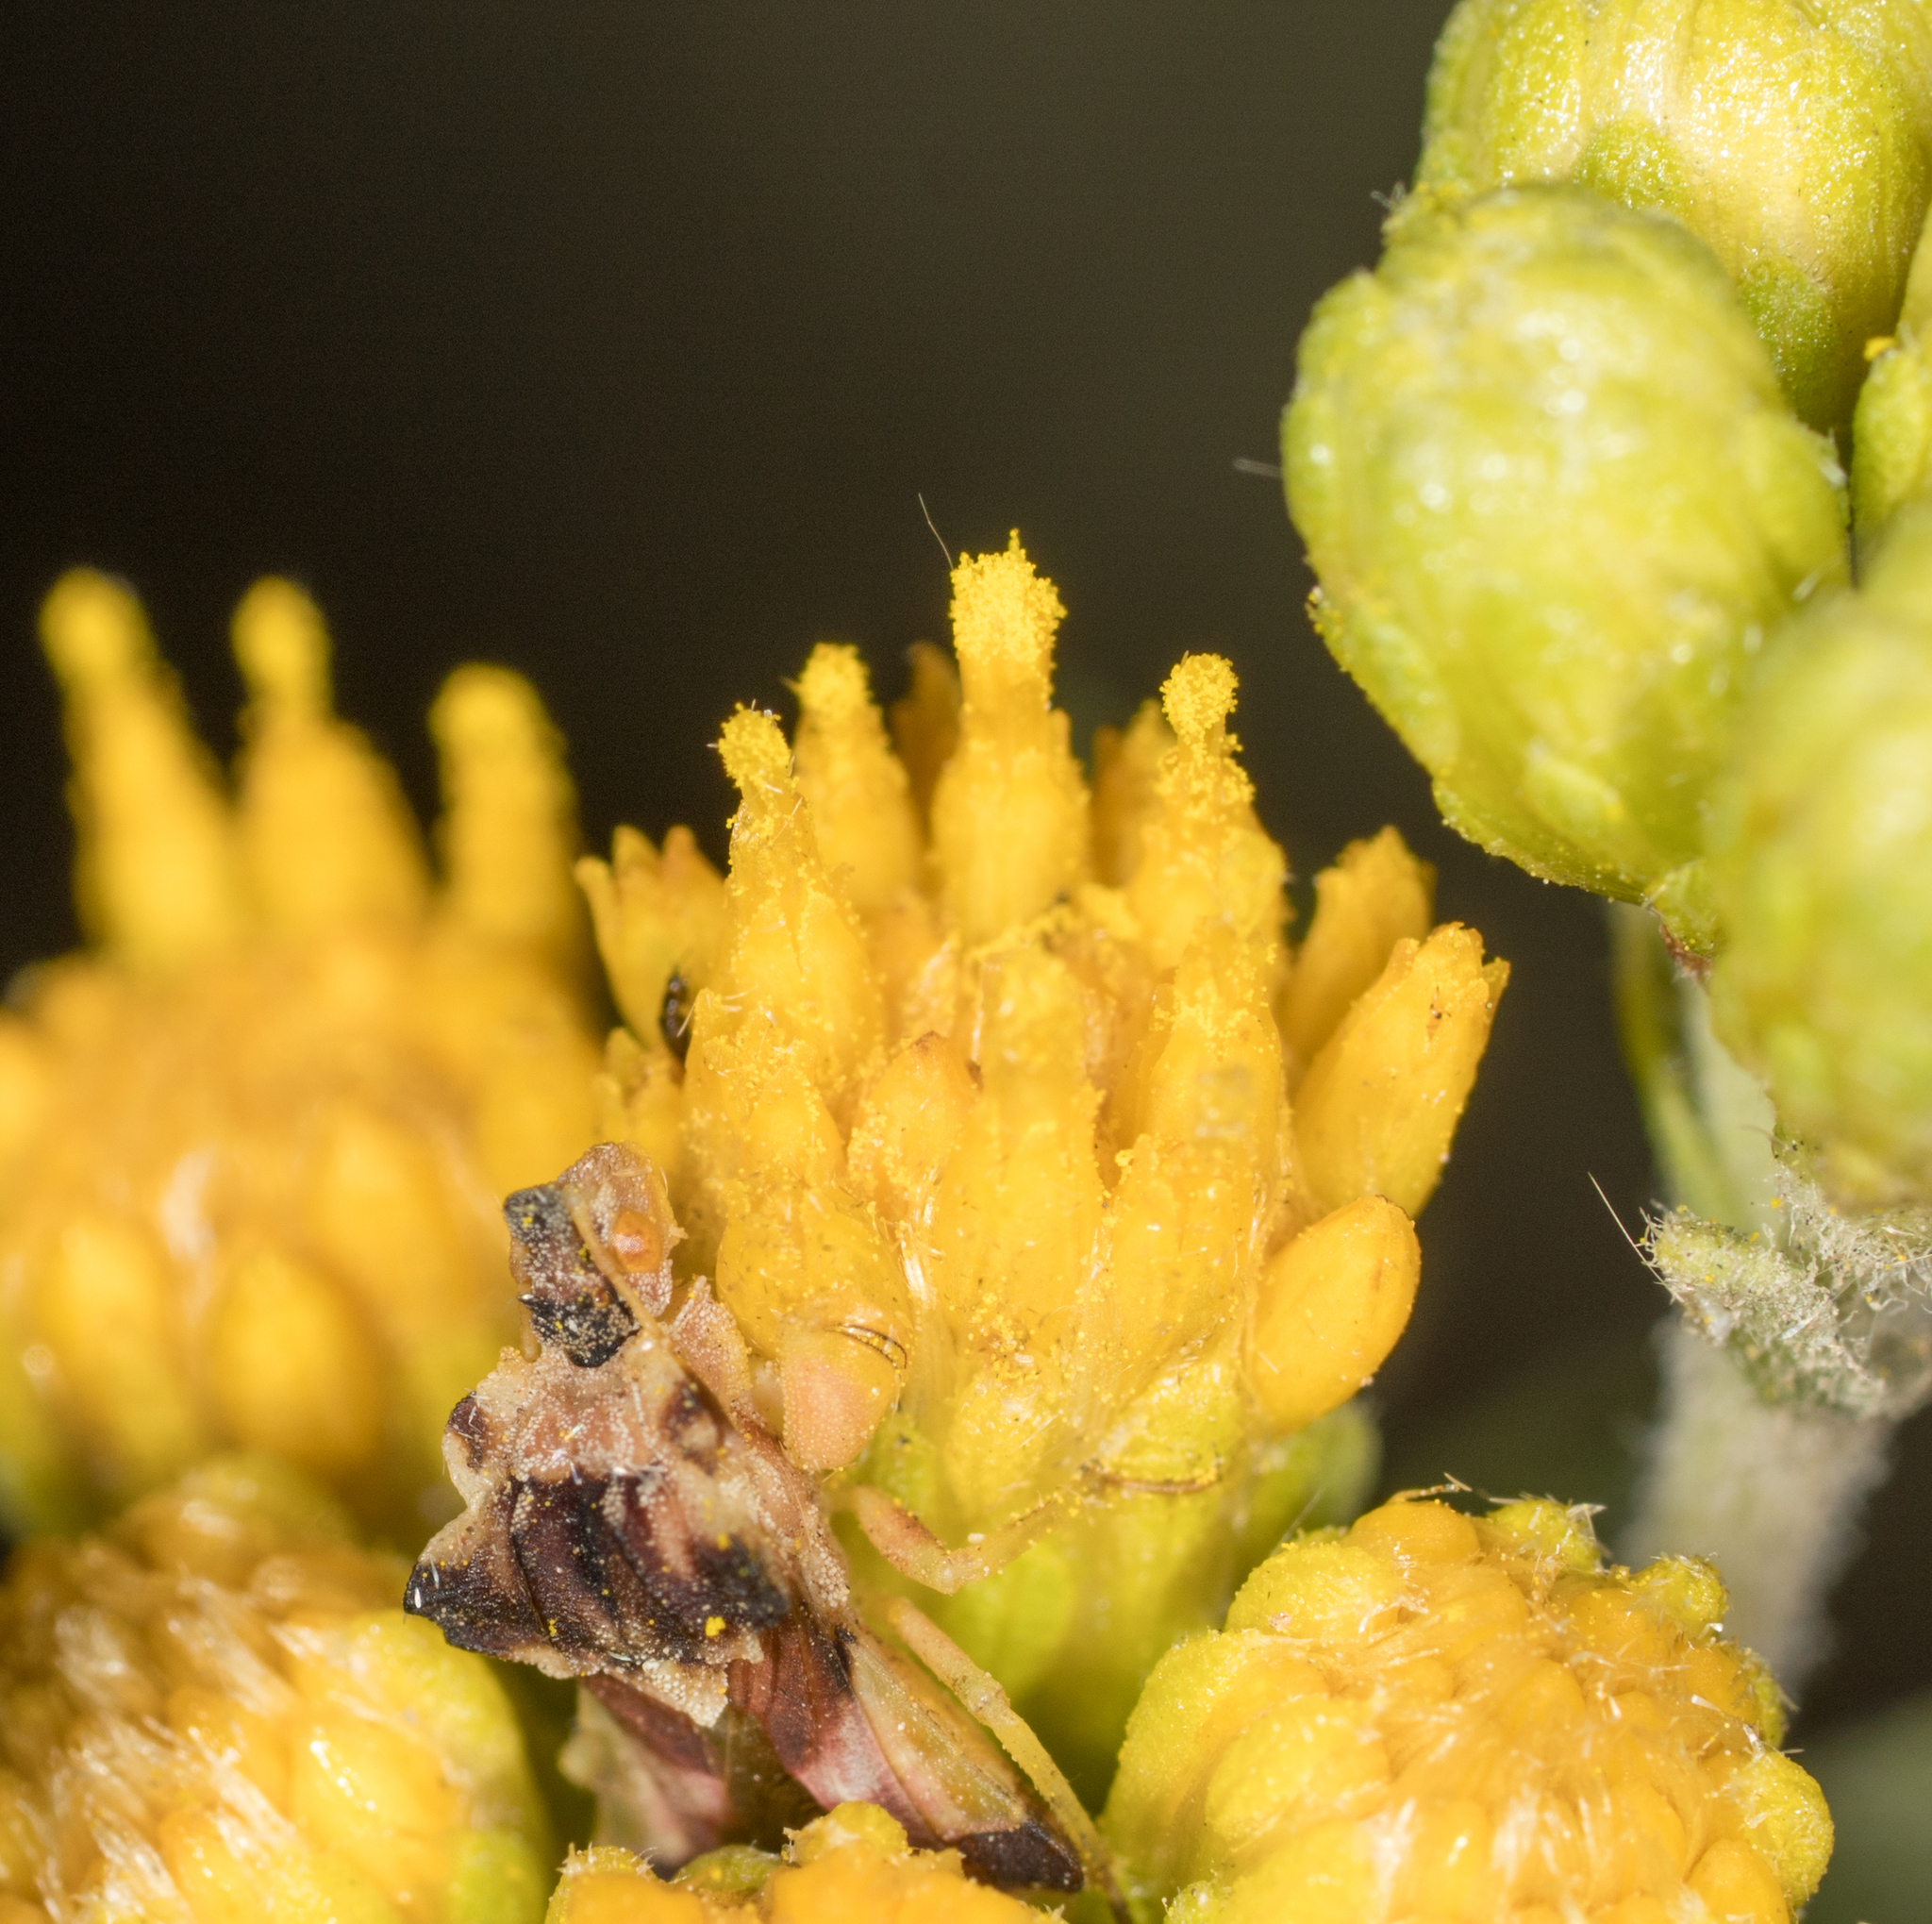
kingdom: Animalia
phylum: Arthropoda
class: Insecta
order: Hemiptera
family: Reduviidae
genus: Phymata
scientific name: Phymata pacifica
